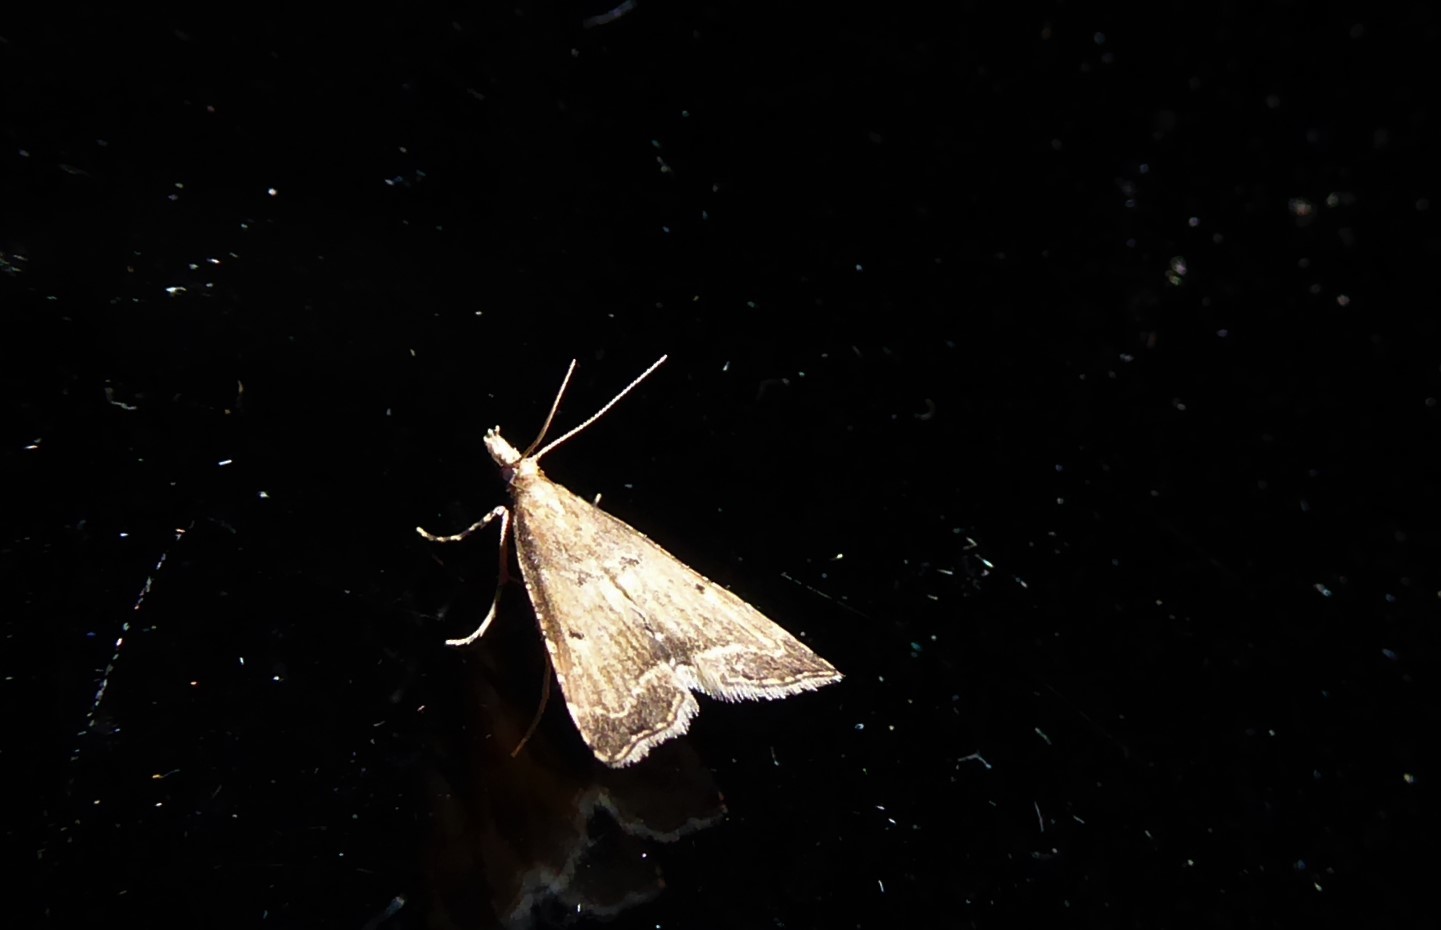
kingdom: Animalia
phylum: Arthropoda
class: Insecta
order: Lepidoptera
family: Crambidae
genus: Diplopseustis
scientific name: Diplopseustis perieresalis
